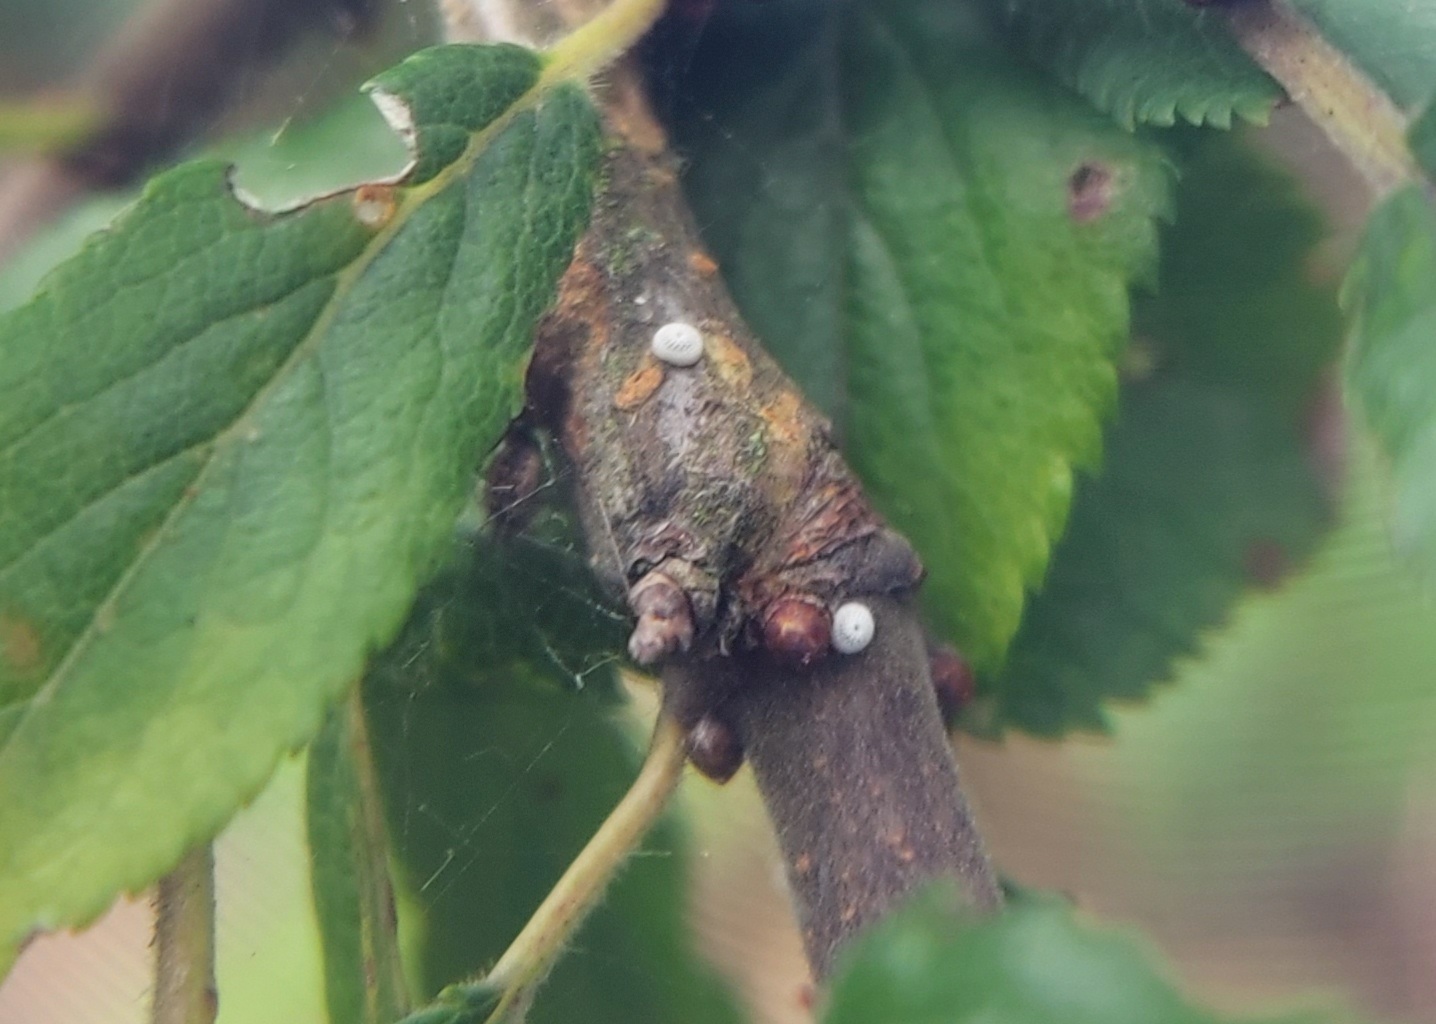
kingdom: Animalia
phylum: Arthropoda
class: Insecta
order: Lepidoptera
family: Lycaenidae
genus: Thecla
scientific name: Thecla betulae
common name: Brown hairstreak
